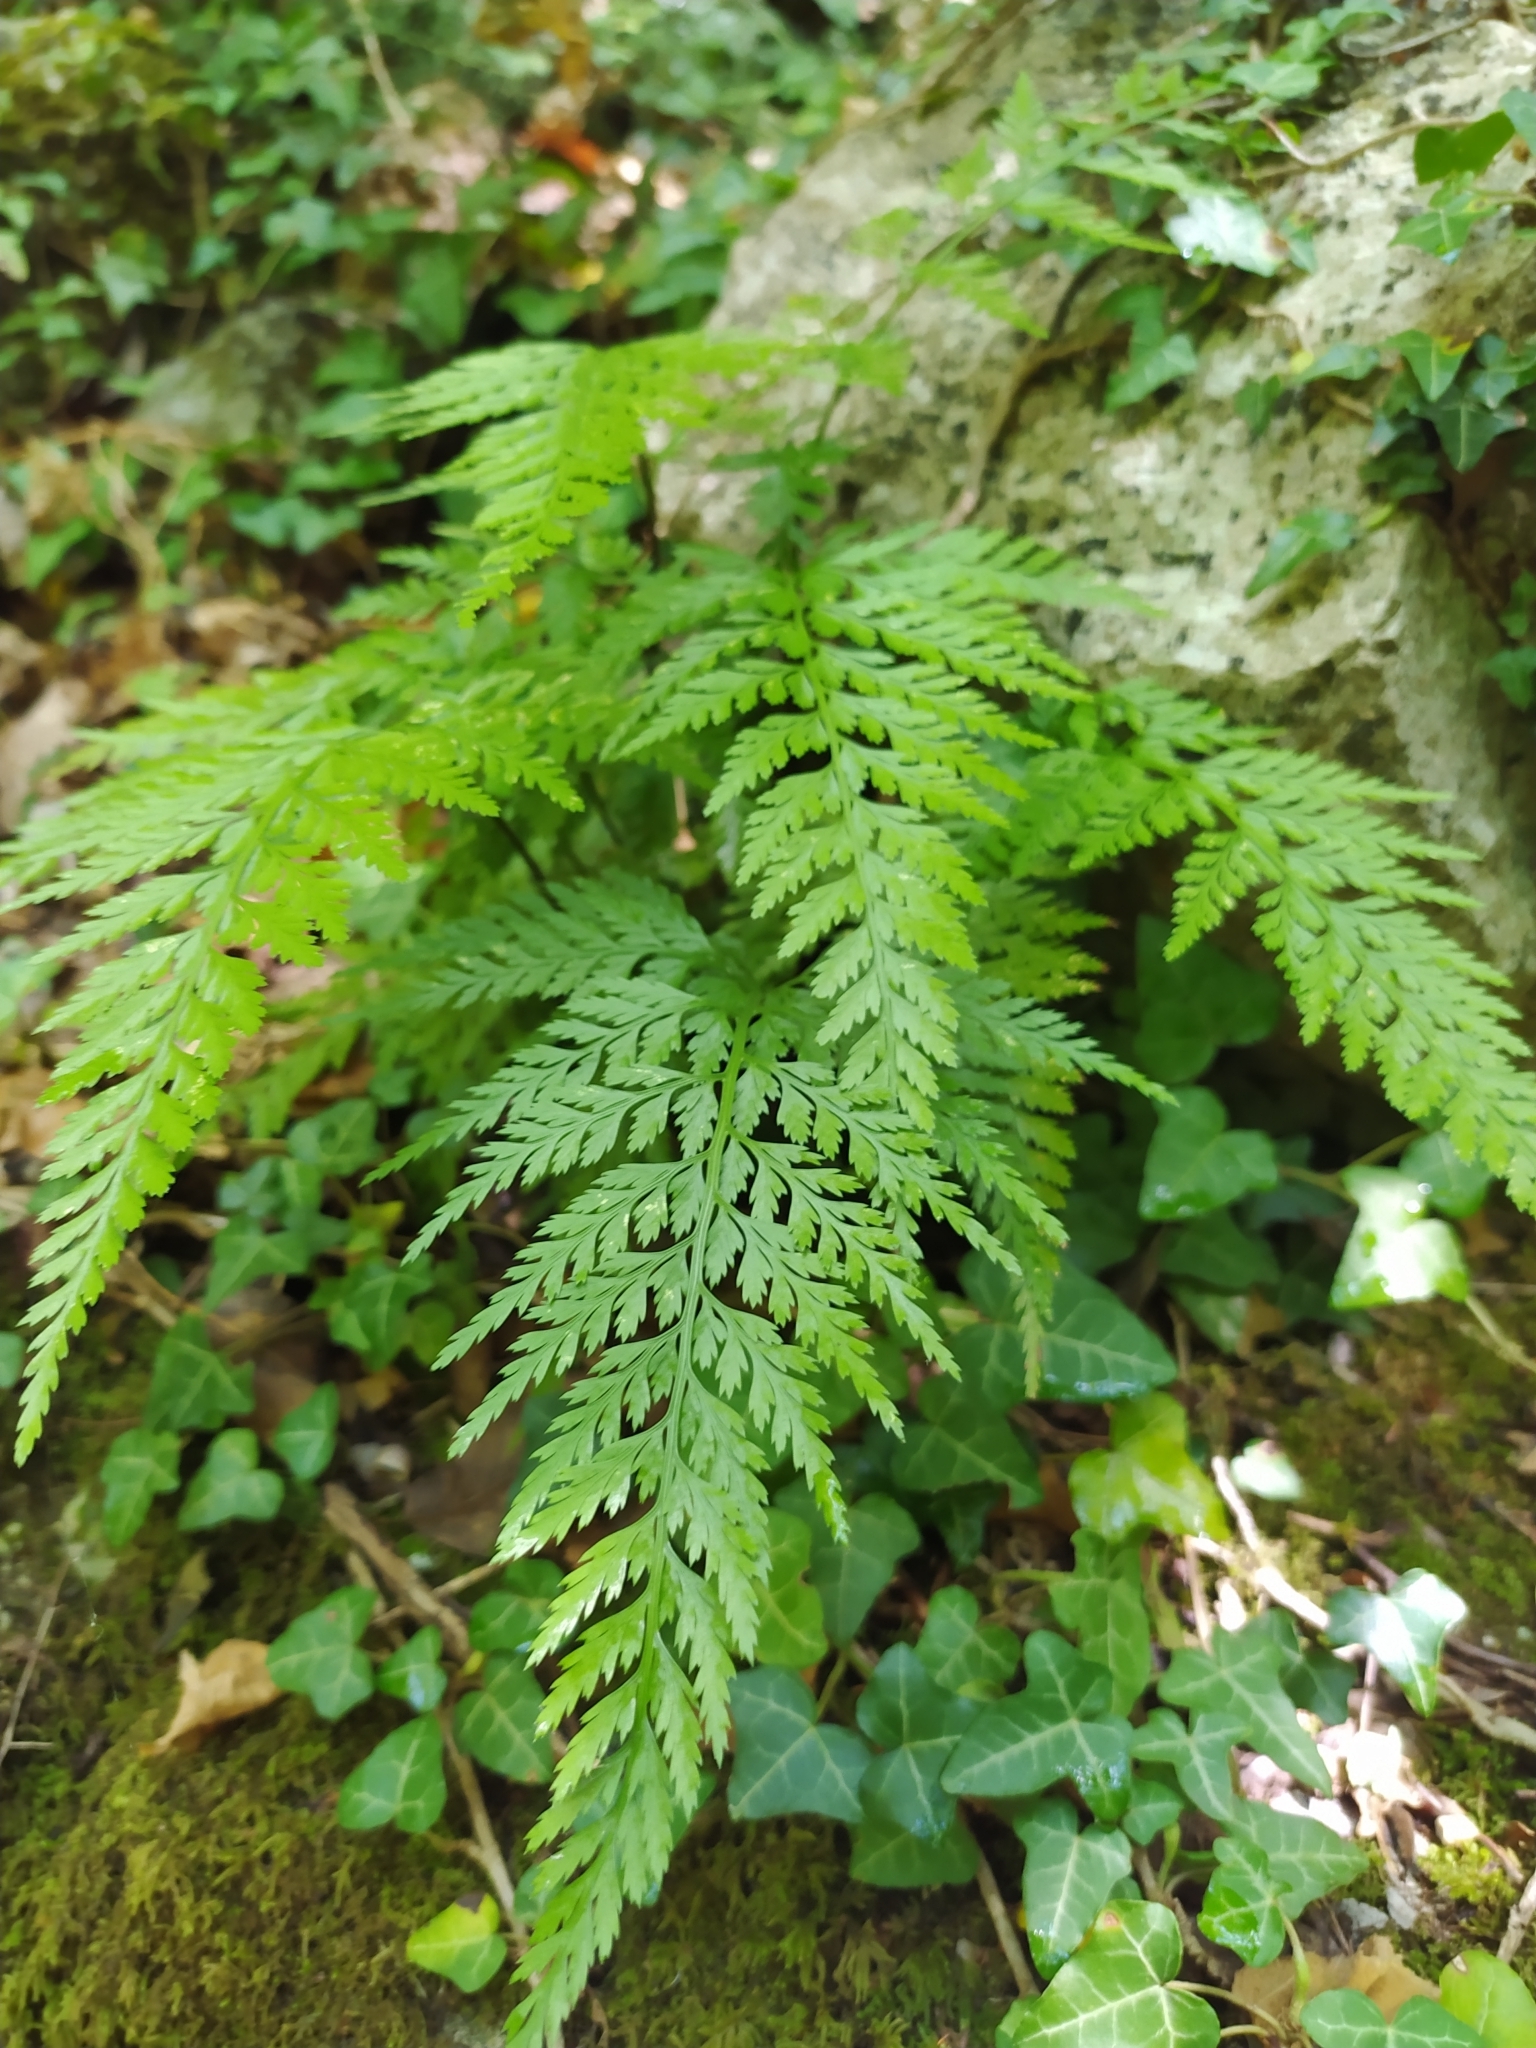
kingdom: Plantae
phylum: Tracheophyta
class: Polypodiopsida
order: Polypodiales
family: Aspleniaceae
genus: Asplenium
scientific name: Asplenium onopteris
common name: Irish spleenwort
